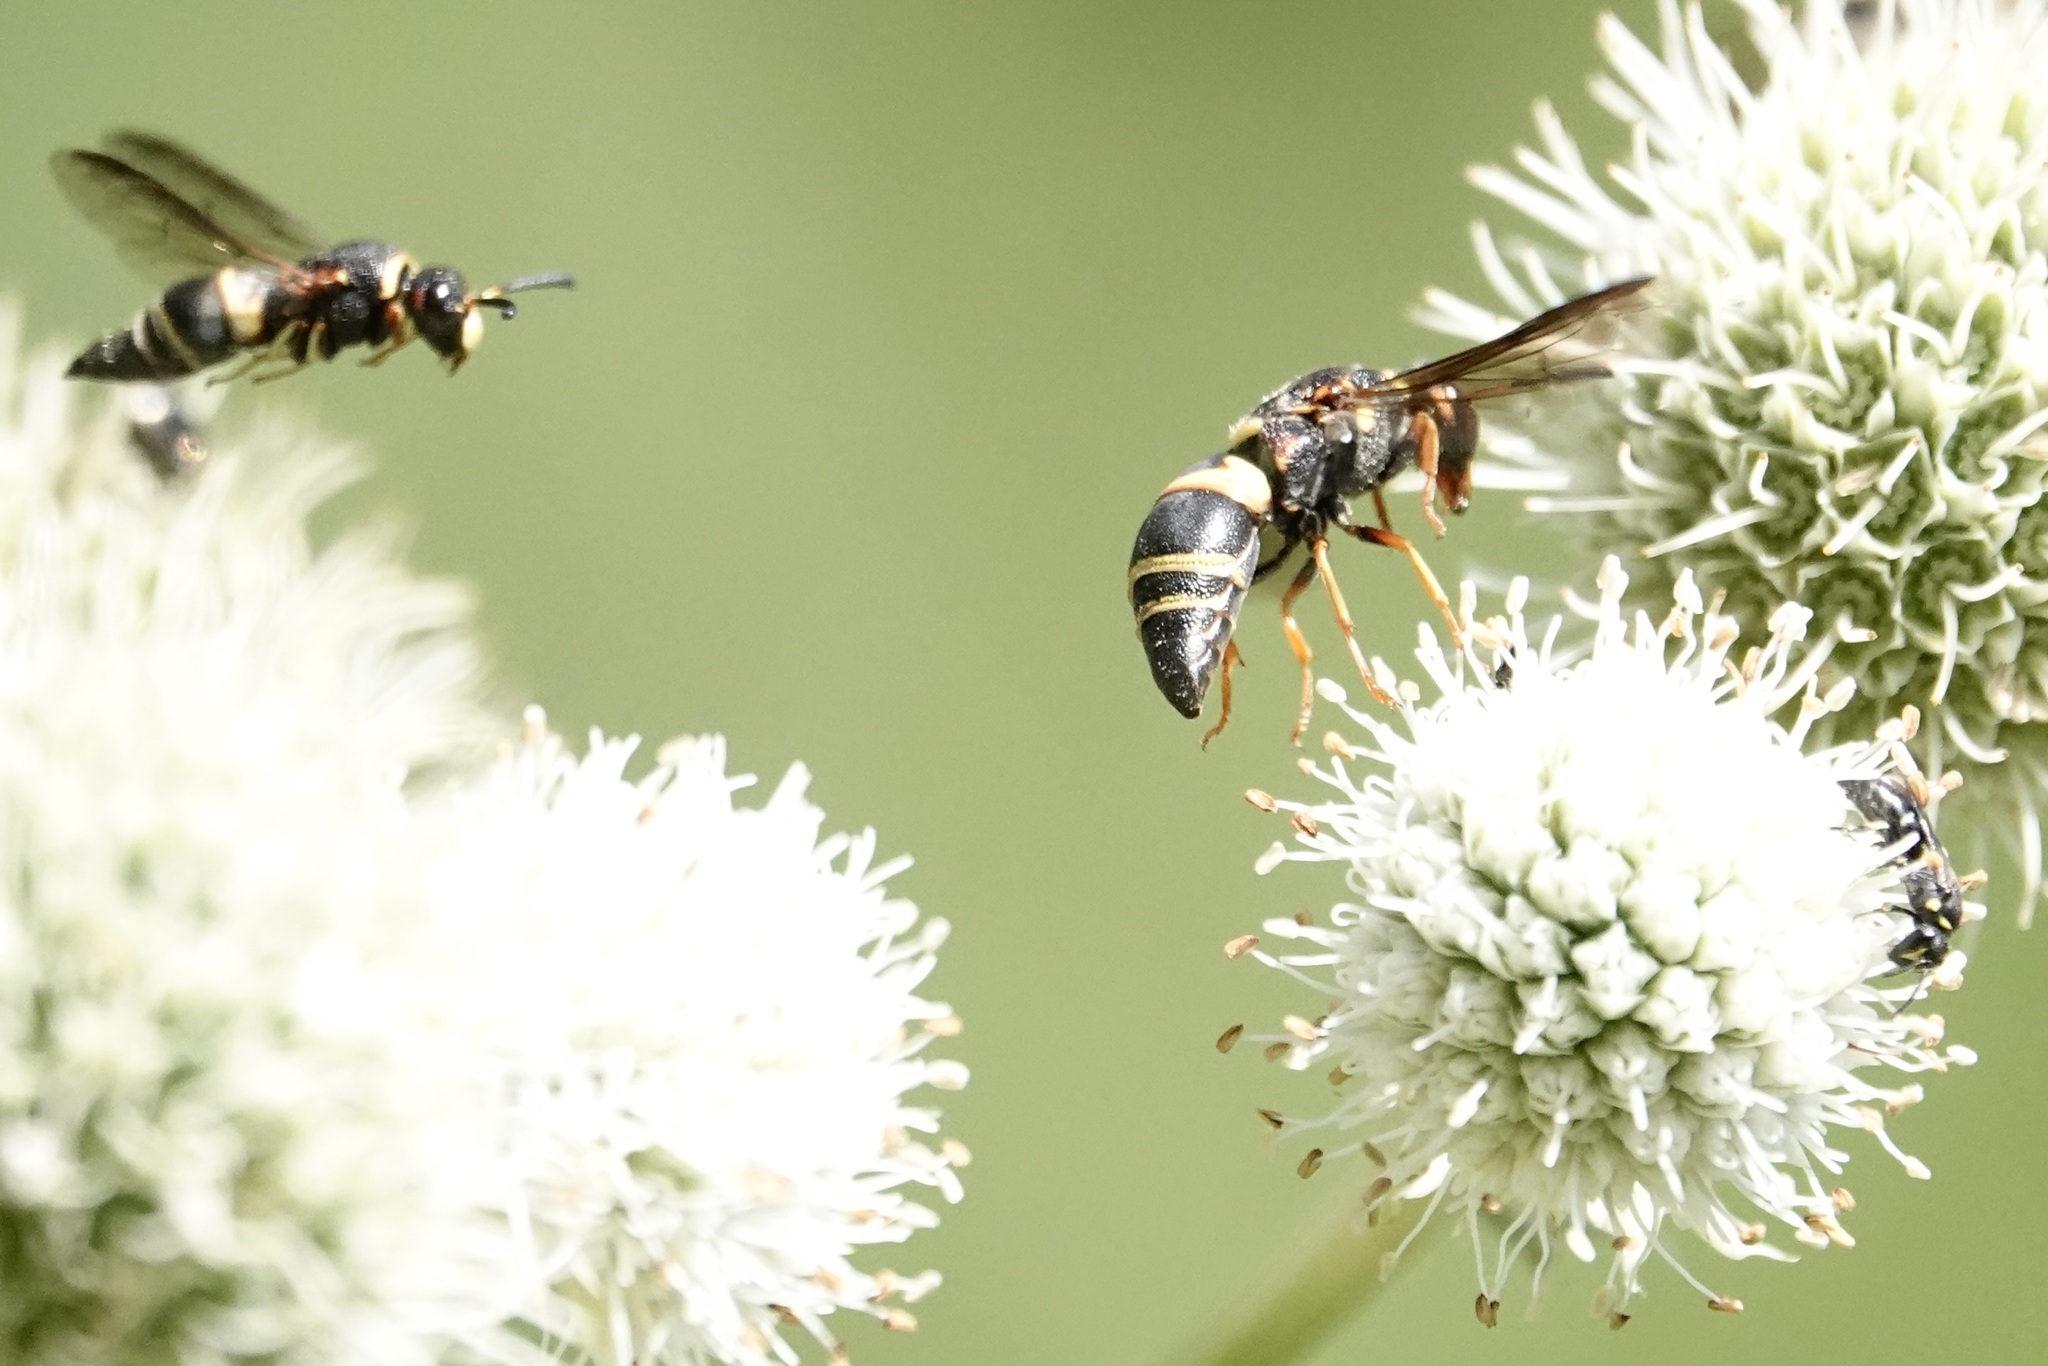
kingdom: Animalia
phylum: Arthropoda
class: Insecta
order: Hymenoptera
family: Eumenidae
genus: Euodynerus
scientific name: Euodynerus hidalgo
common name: Wasp
